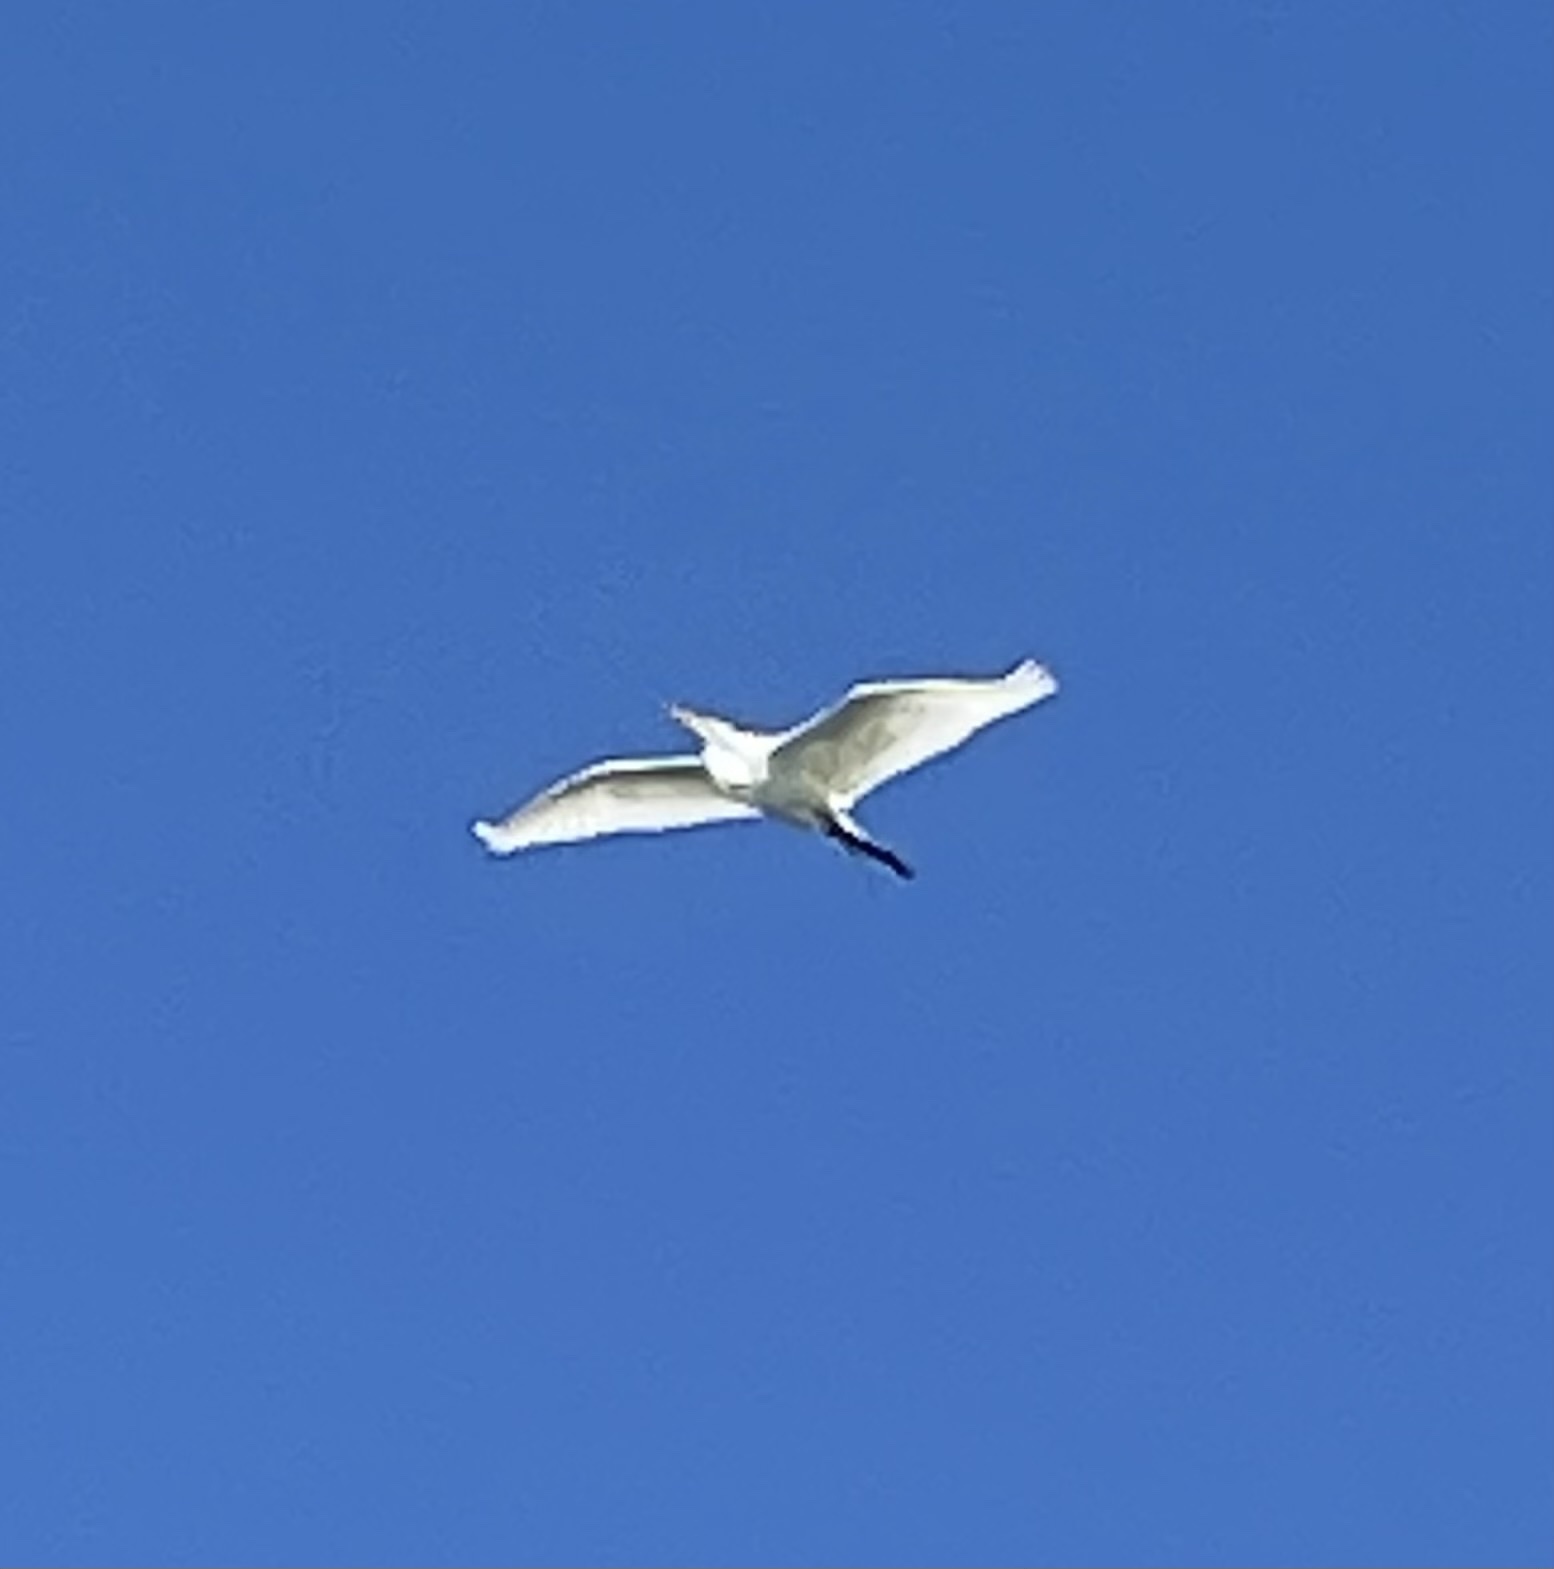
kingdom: Animalia
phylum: Chordata
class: Aves
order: Pelecaniformes
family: Ardeidae
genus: Ardea
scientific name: Ardea alba
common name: Great egret
